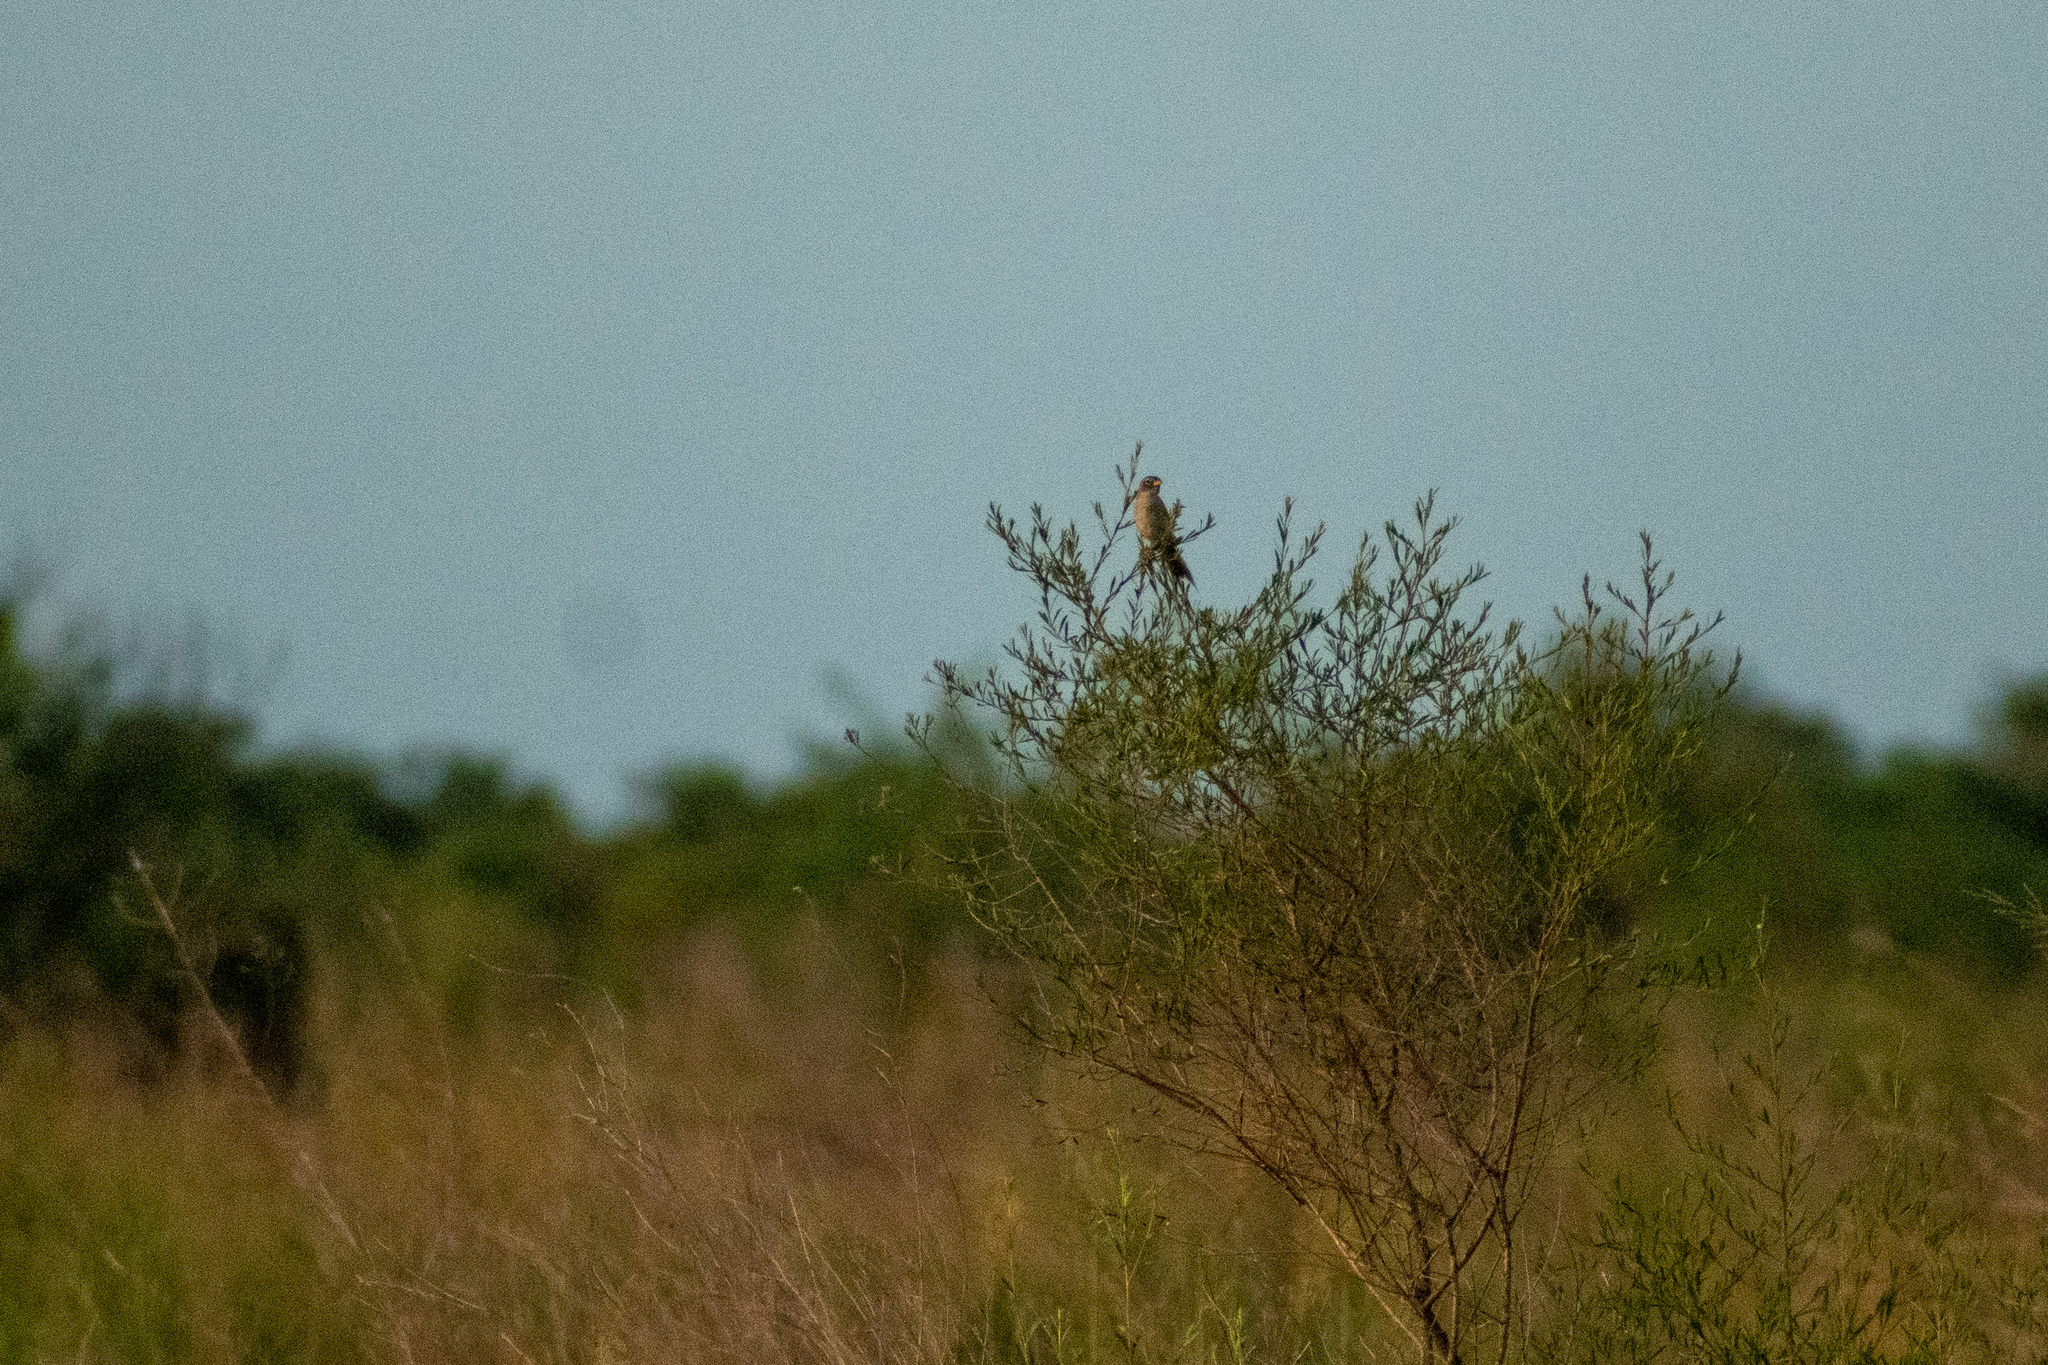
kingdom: Animalia
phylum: Chordata
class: Aves
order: Passeriformes
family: Thraupidae
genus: Emberizoides
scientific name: Emberizoides ypiranganus
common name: Lesser grass finch
